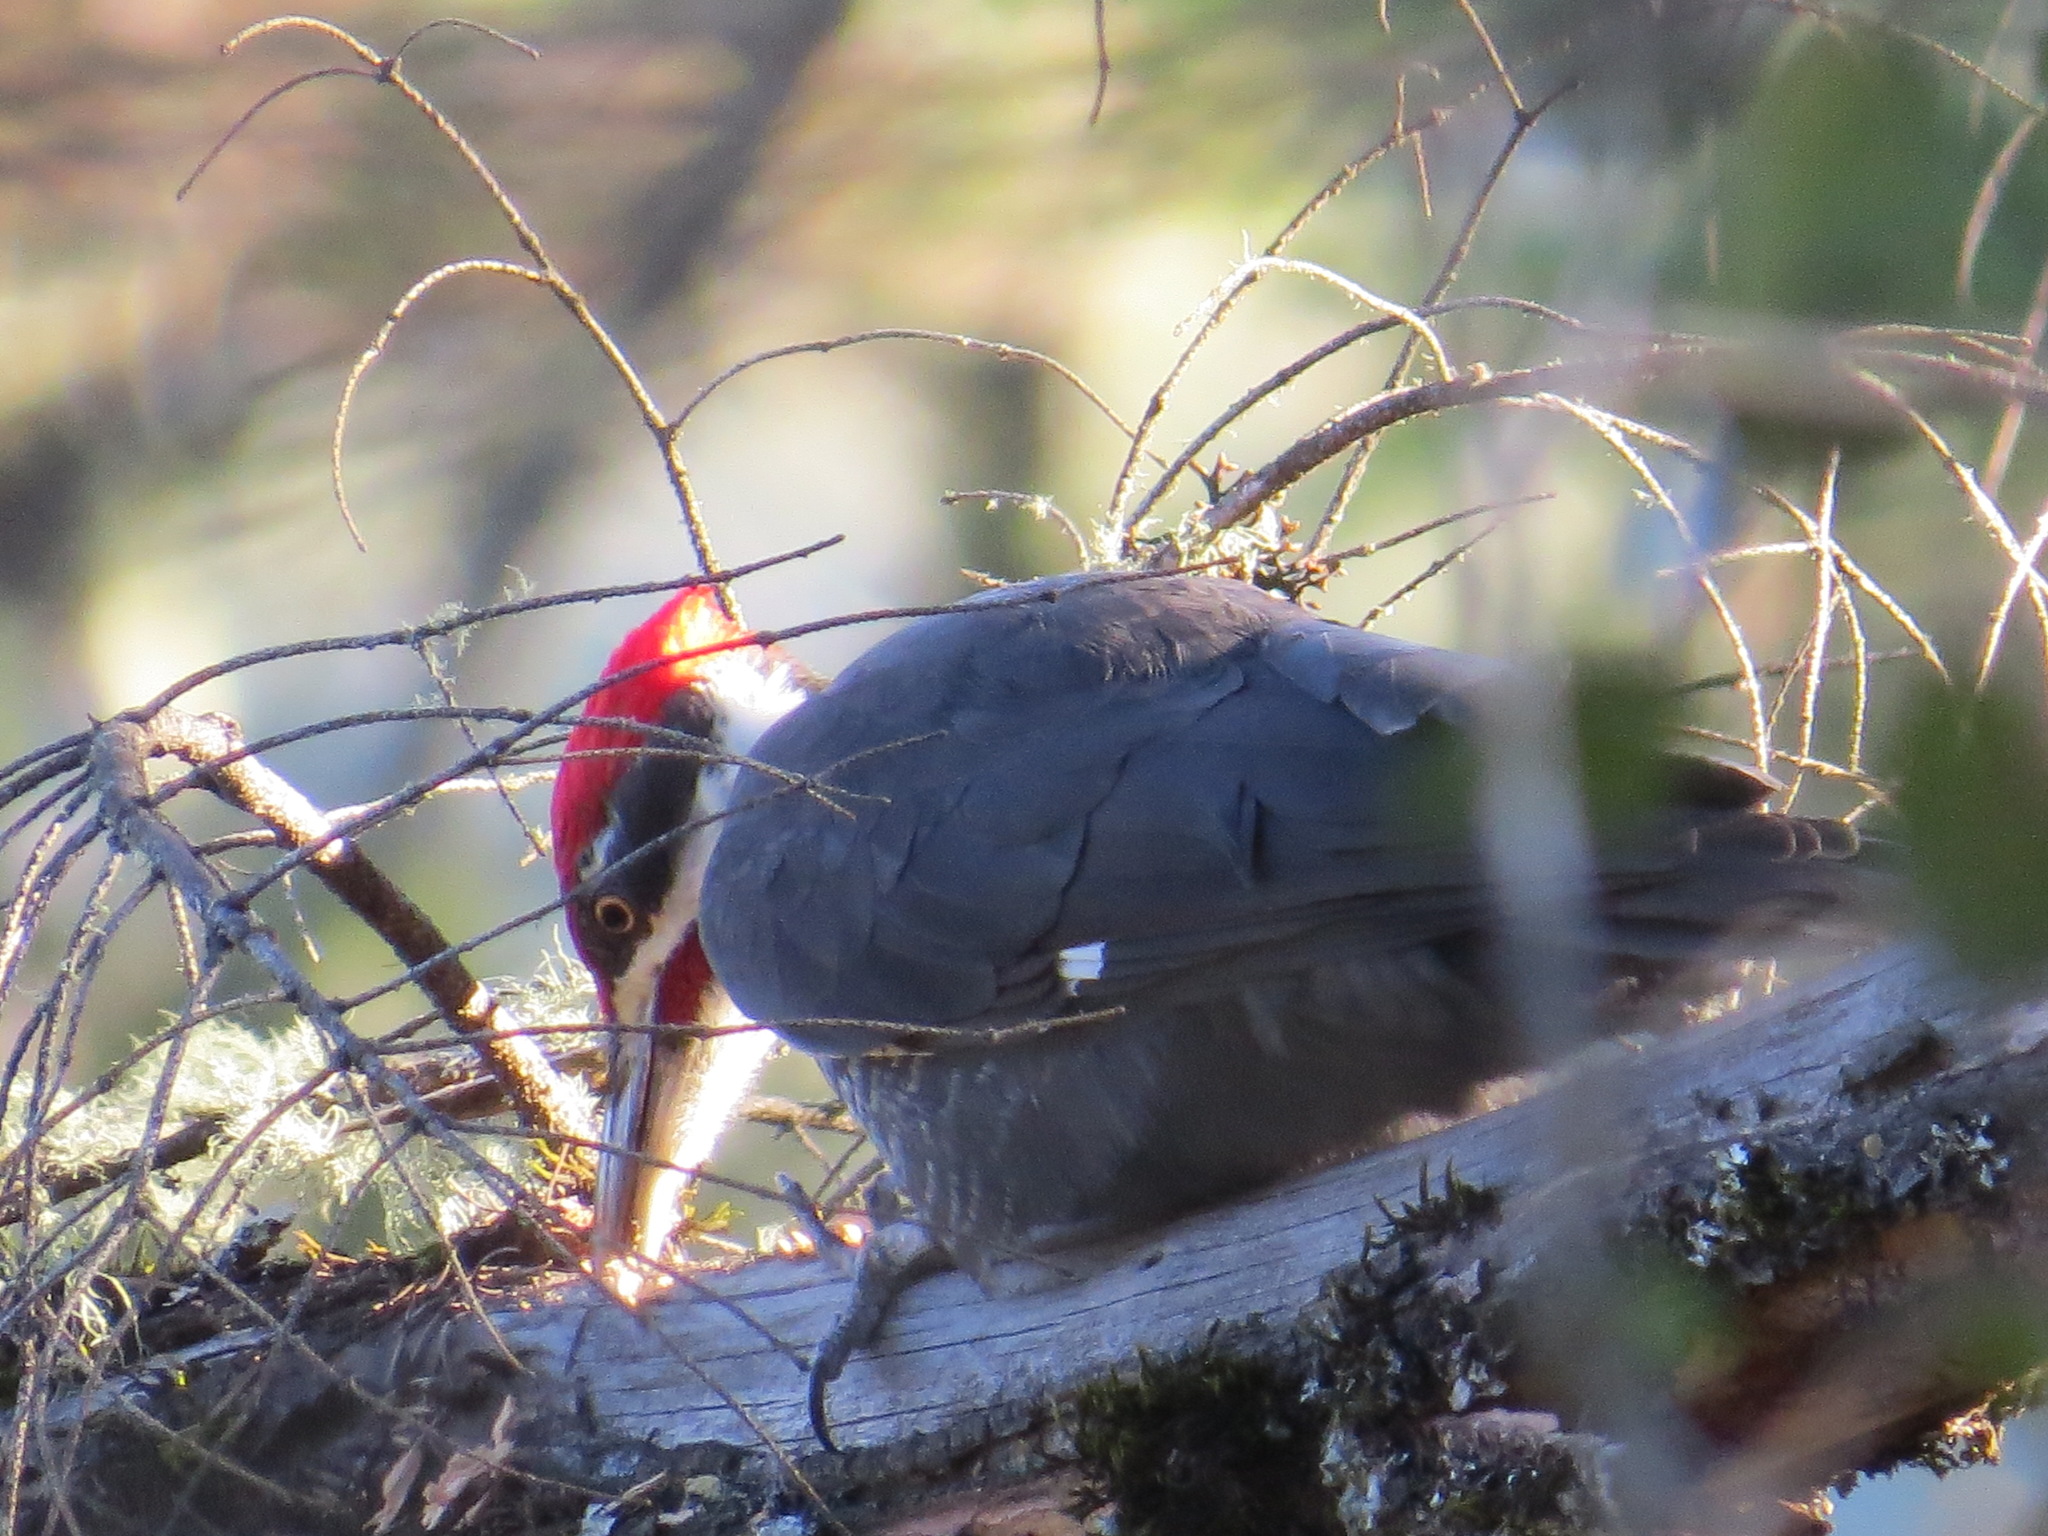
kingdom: Animalia
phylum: Chordata
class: Aves
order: Piciformes
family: Picidae
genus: Dryocopus
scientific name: Dryocopus pileatus
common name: Pileated woodpecker
